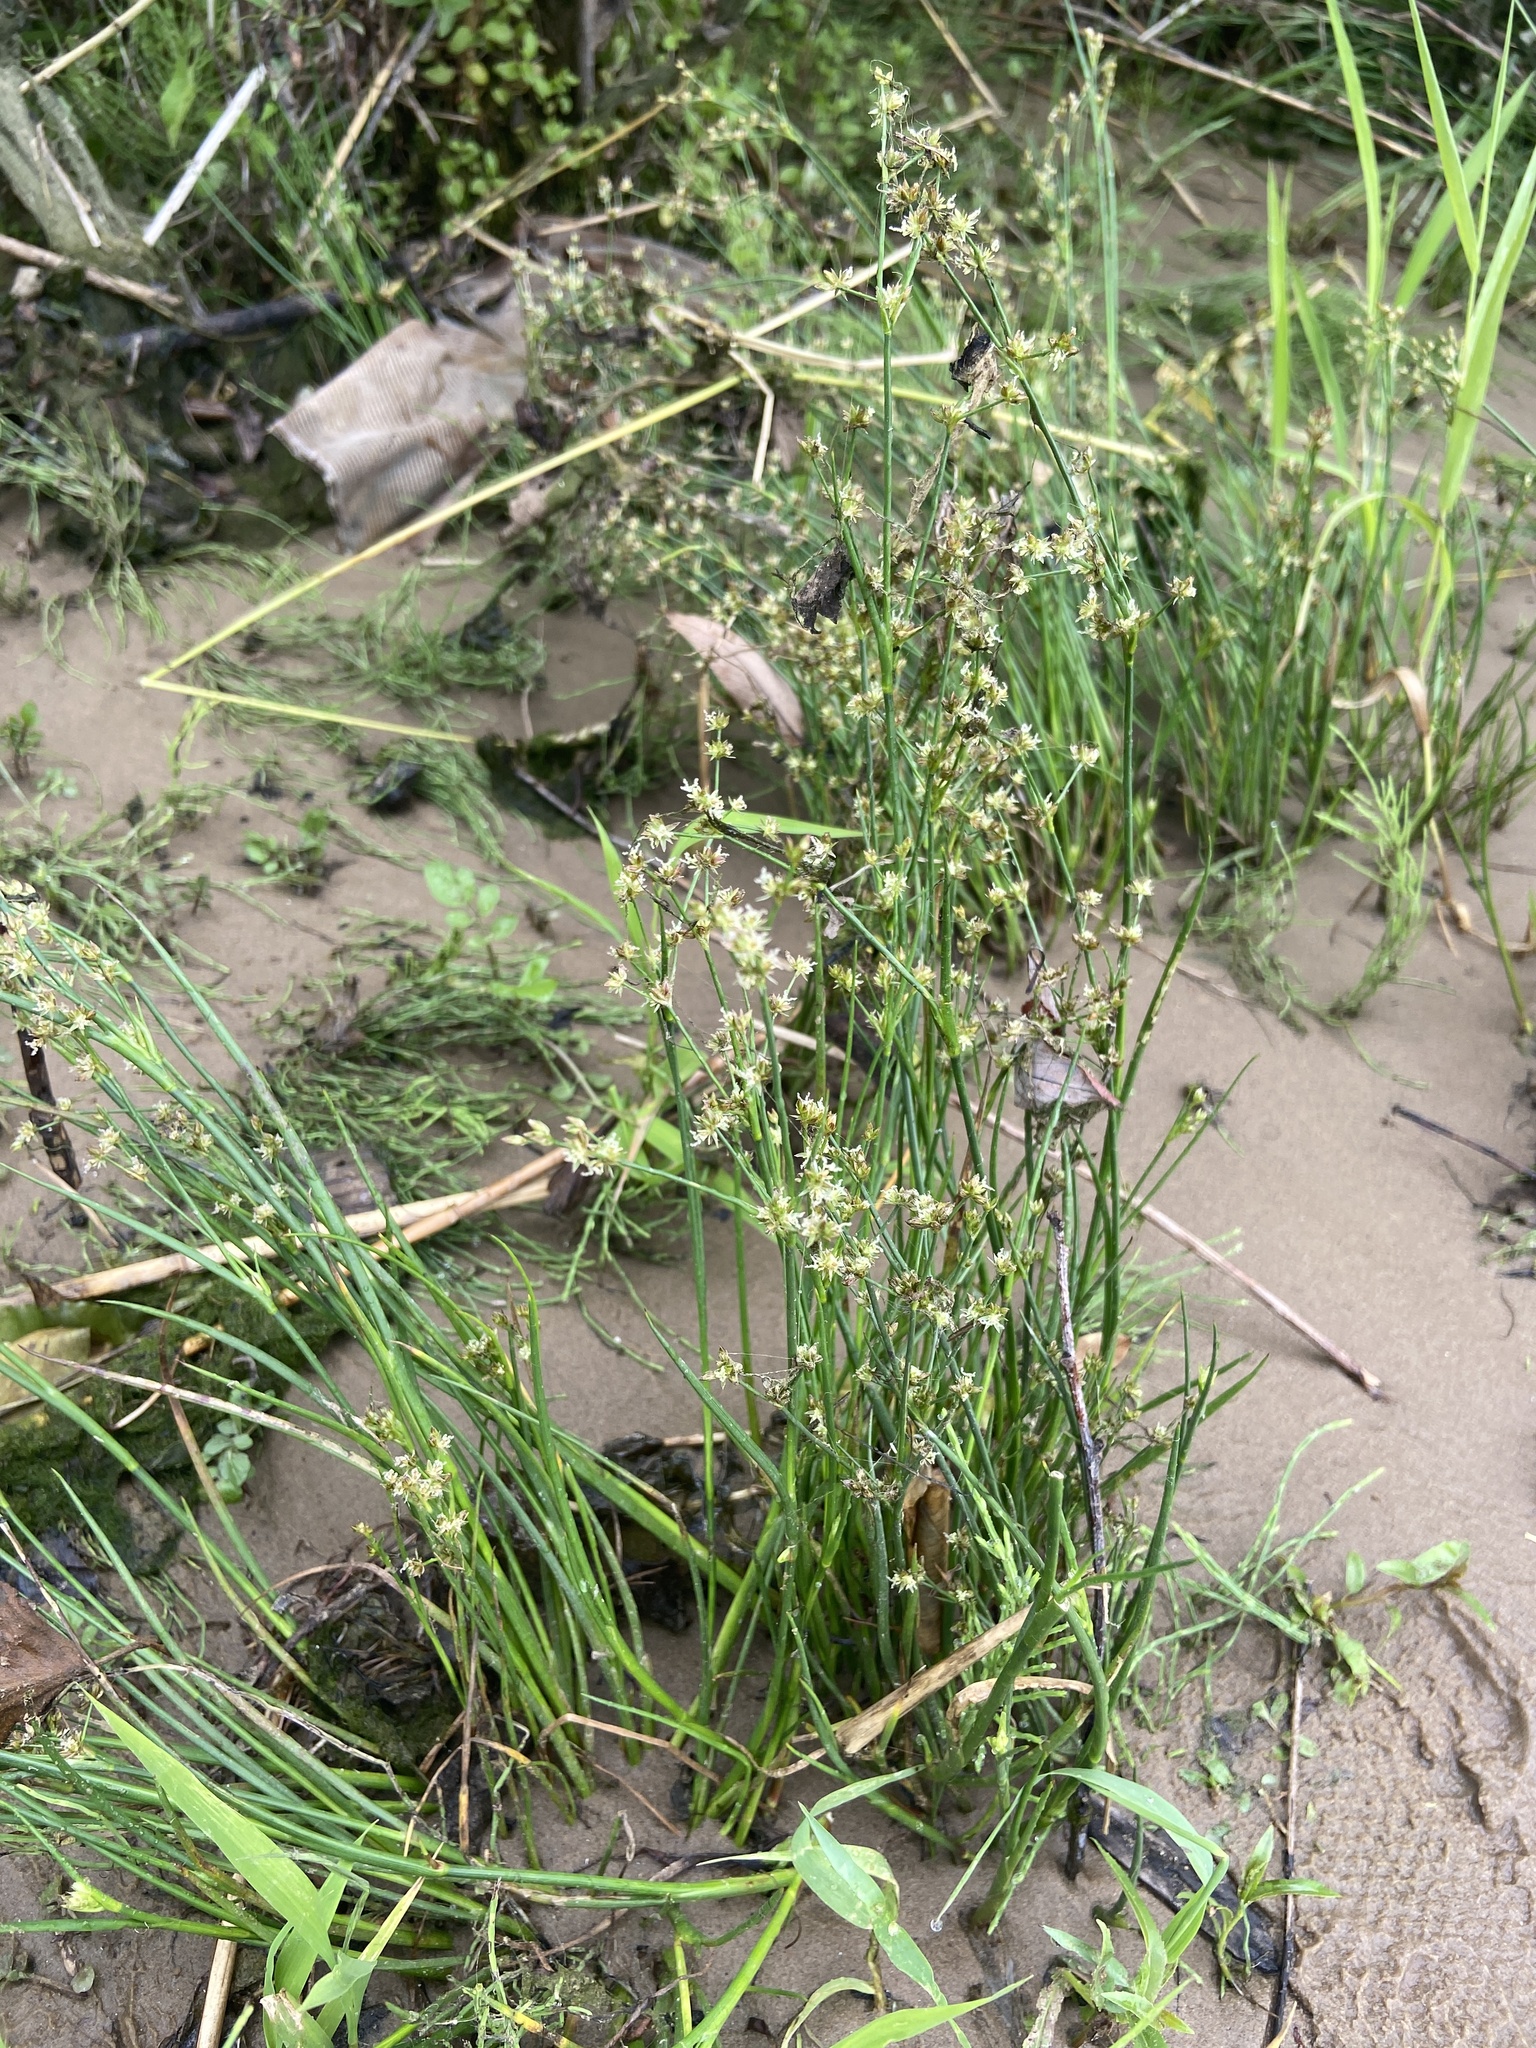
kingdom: Plantae
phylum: Tracheophyta
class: Liliopsida
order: Poales
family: Juncaceae
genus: Juncus
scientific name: Juncus articulatus
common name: Jointed rush
